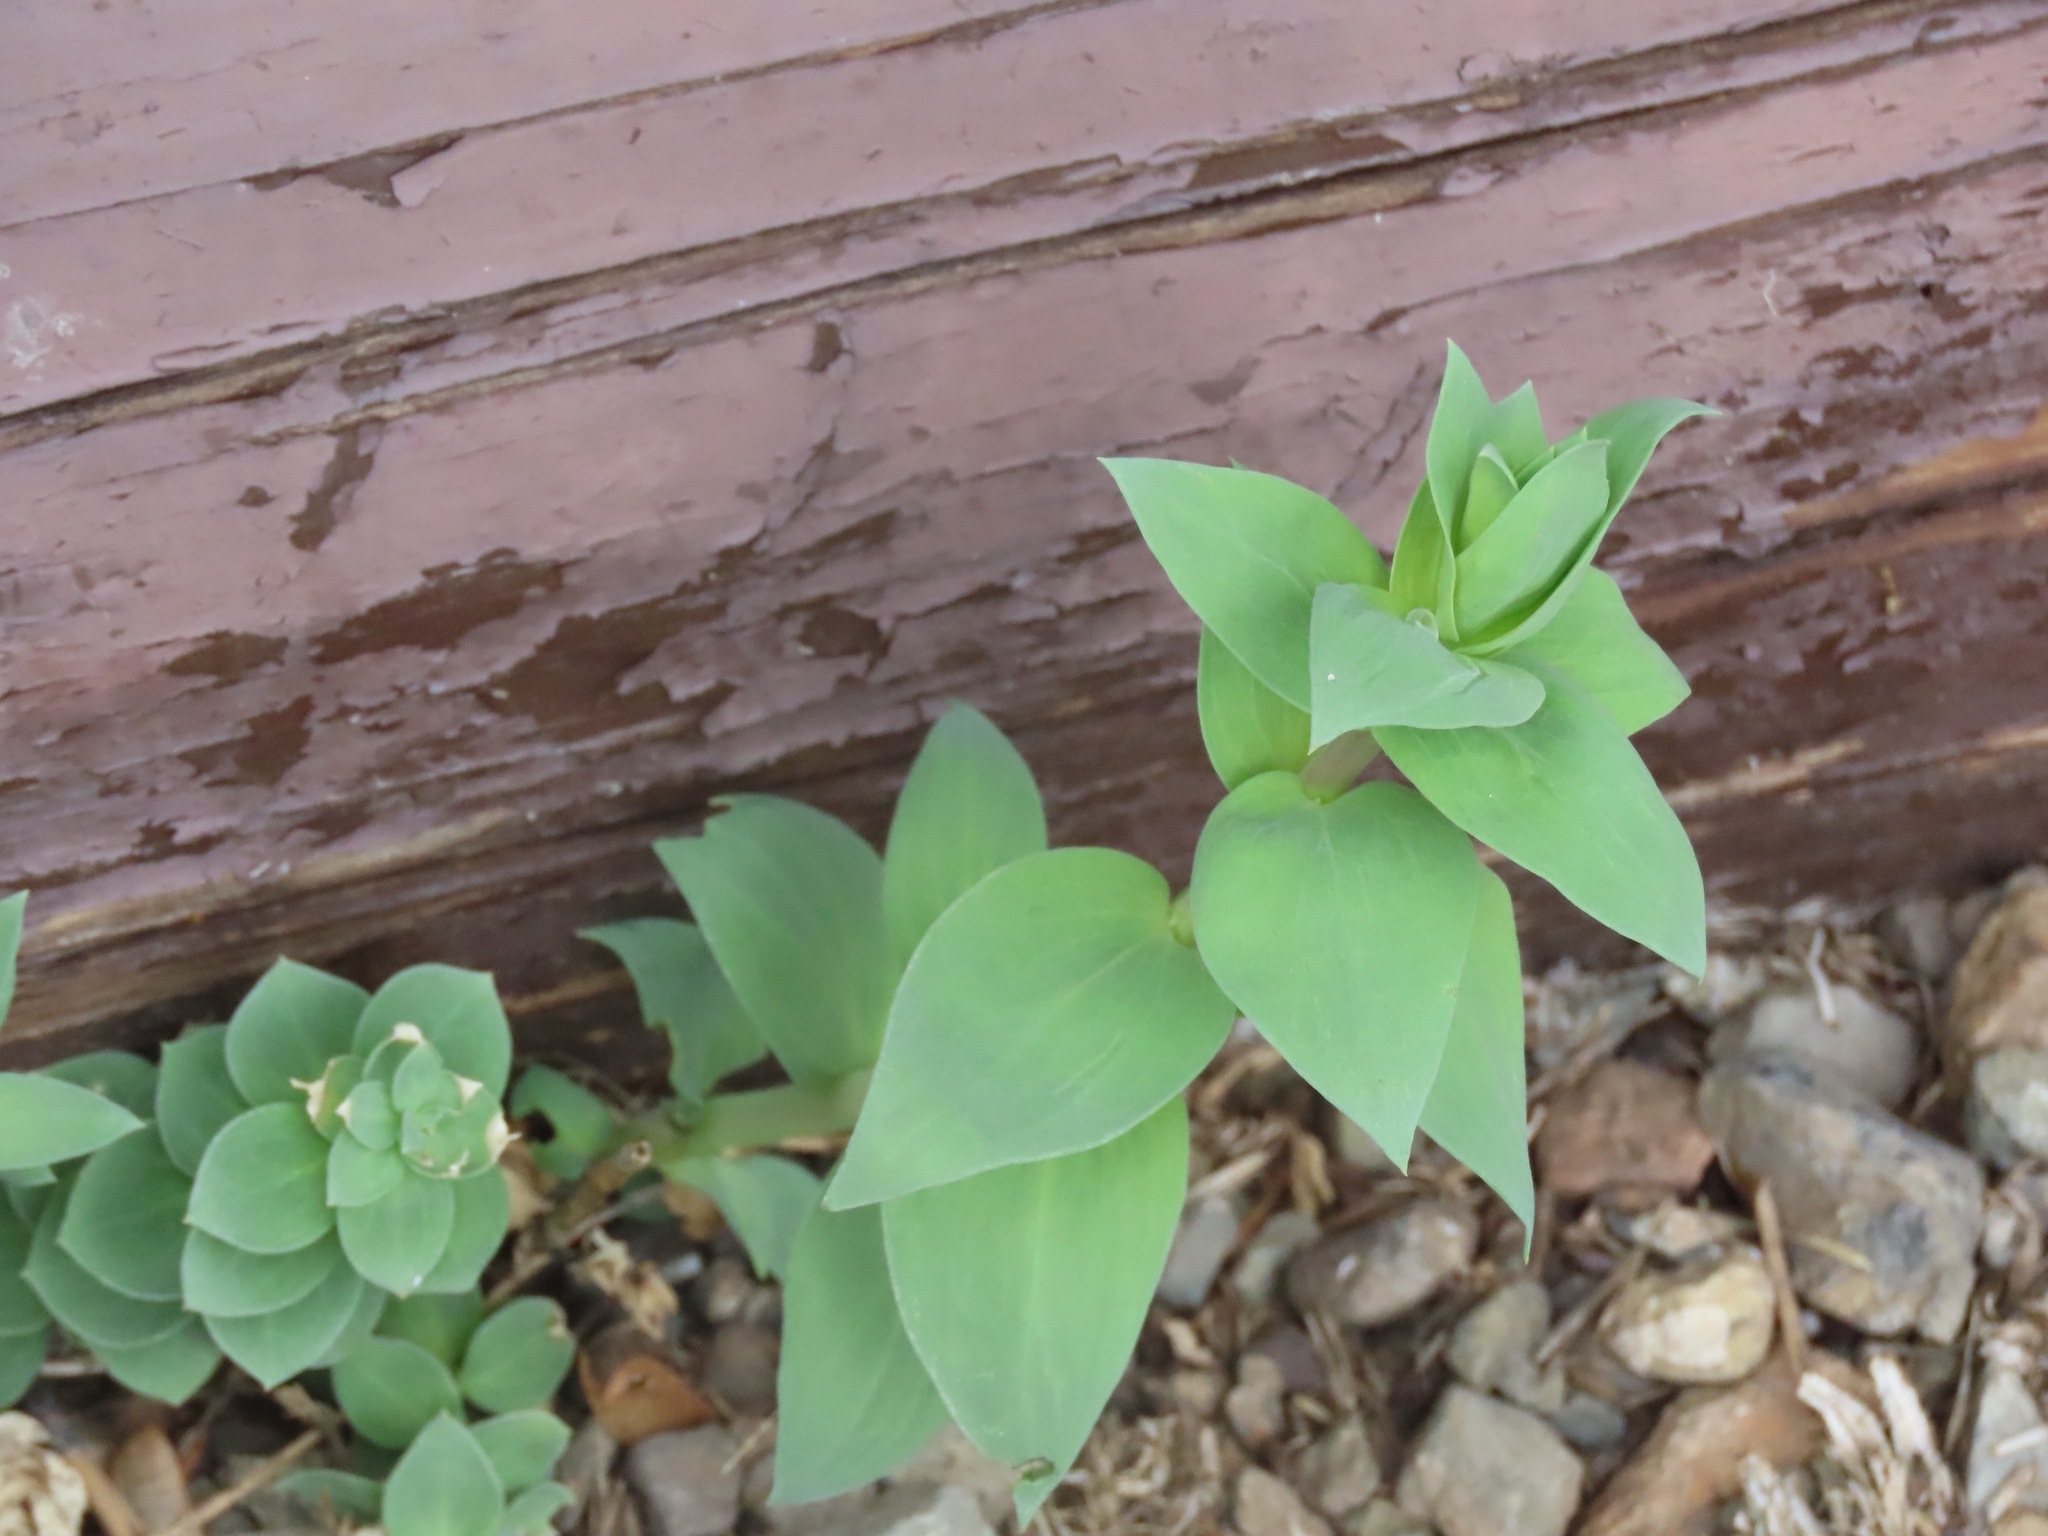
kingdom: Plantae
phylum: Tracheophyta
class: Magnoliopsida
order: Lamiales
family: Plantaginaceae
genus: Linaria
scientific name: Linaria dalmatica
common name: Dalmatian toadflax
